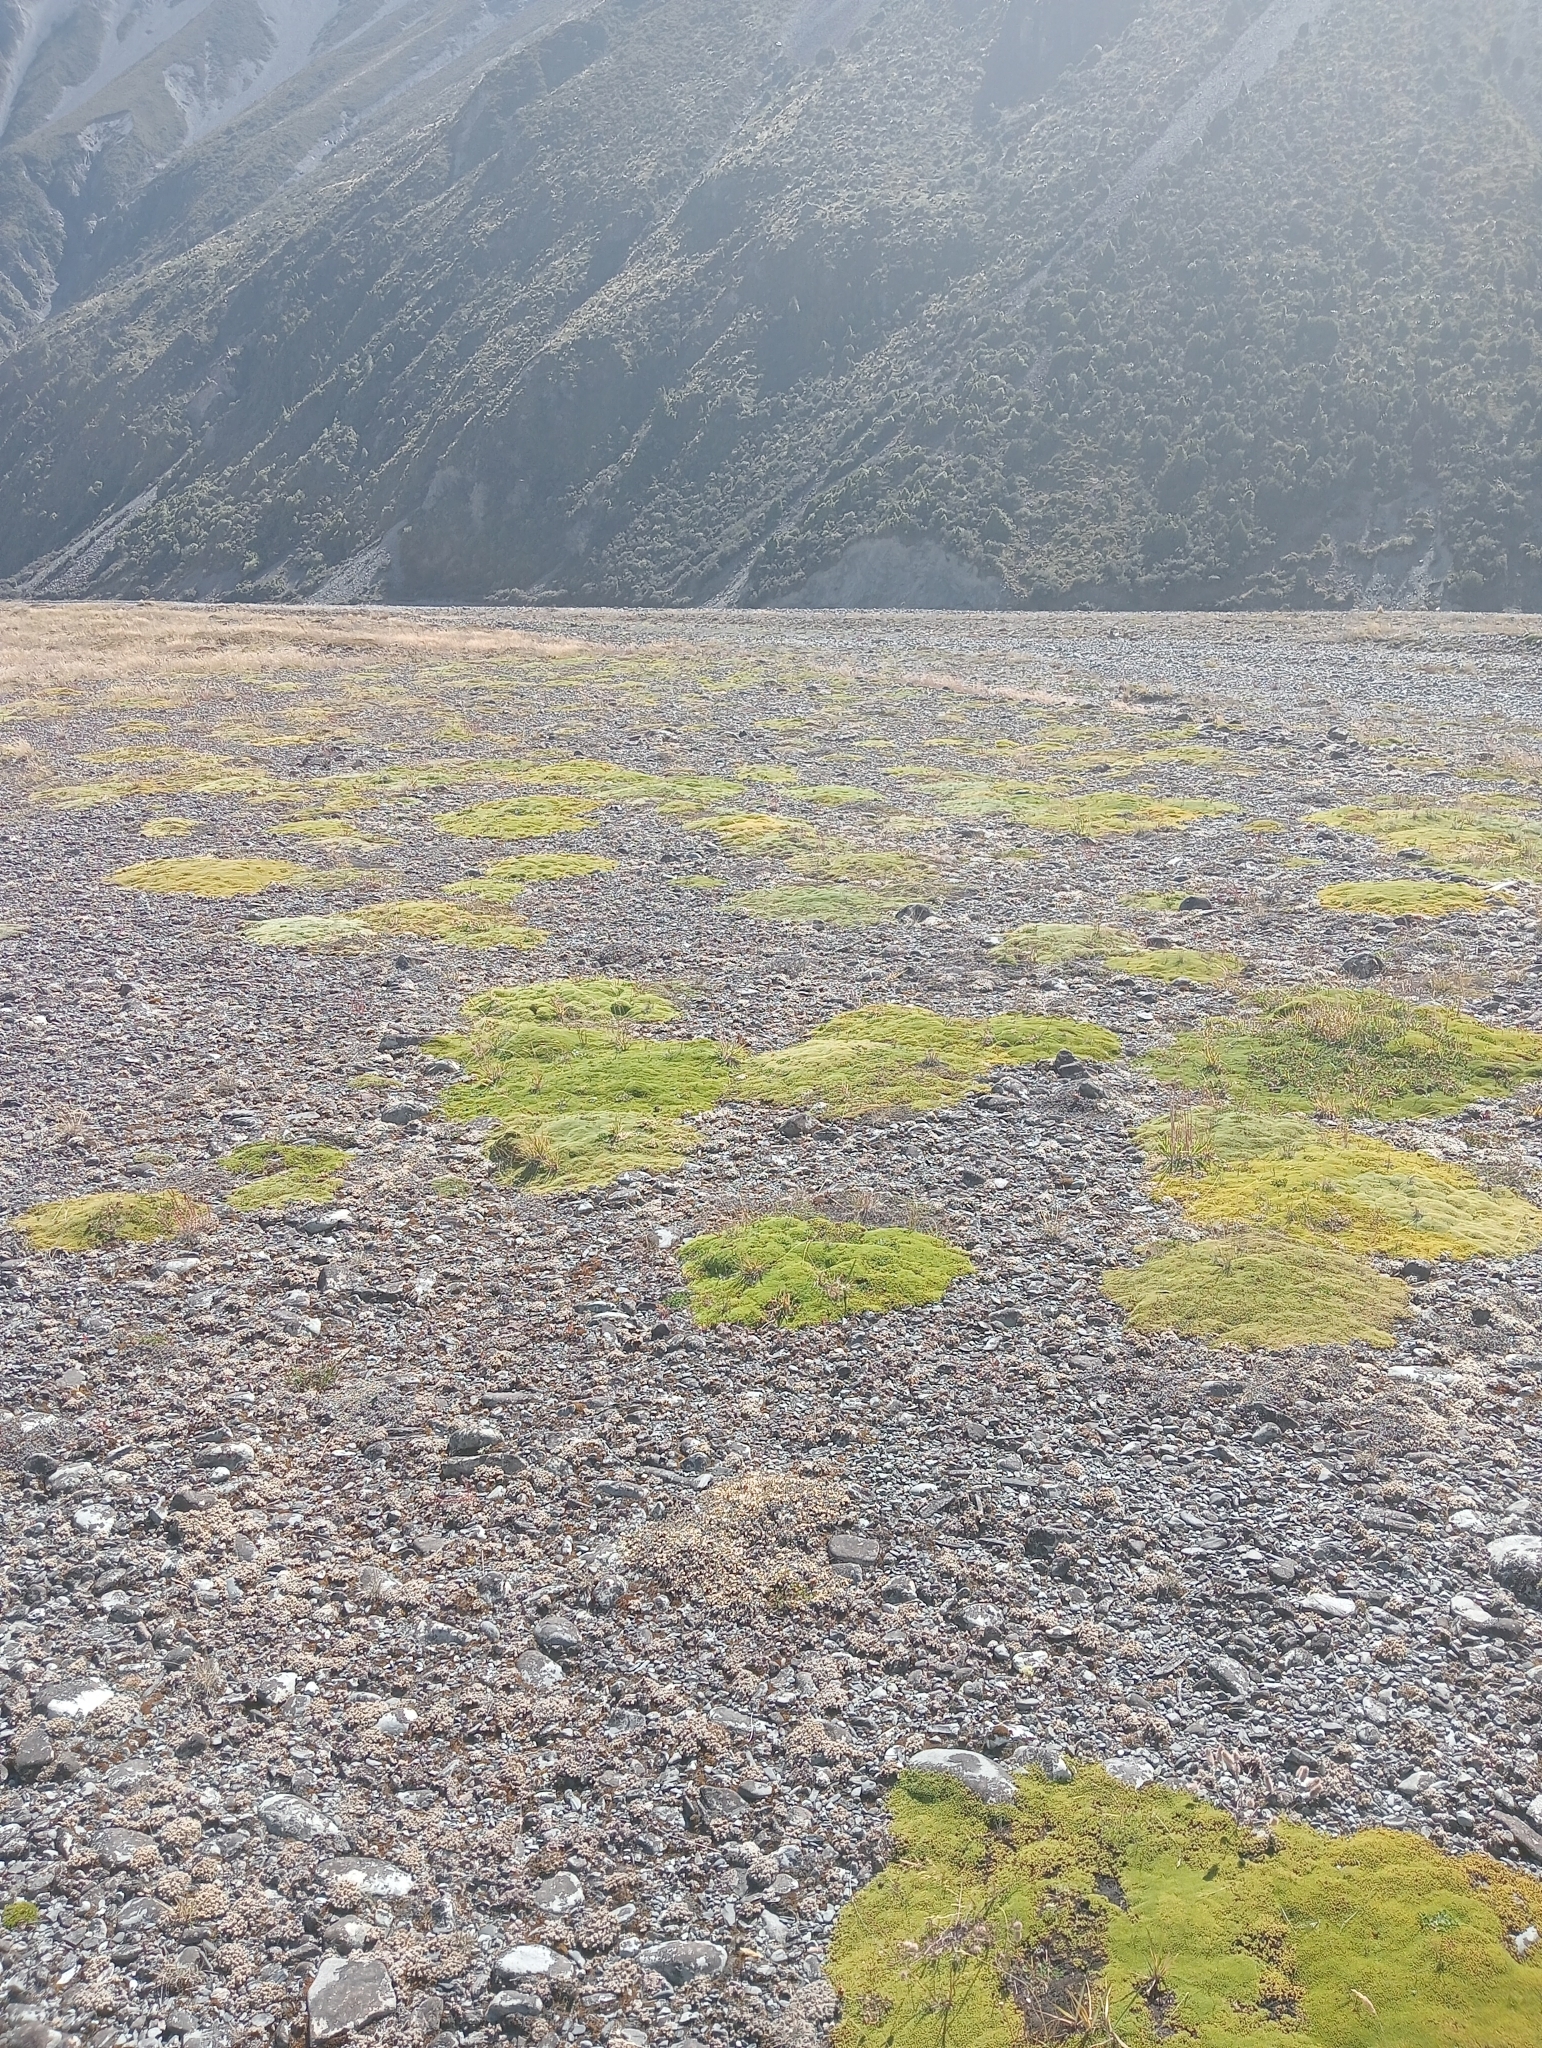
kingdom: Plantae
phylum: Tracheophyta
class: Magnoliopsida
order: Asterales
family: Asteraceae
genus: Raoulia
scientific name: Raoulia haastii
